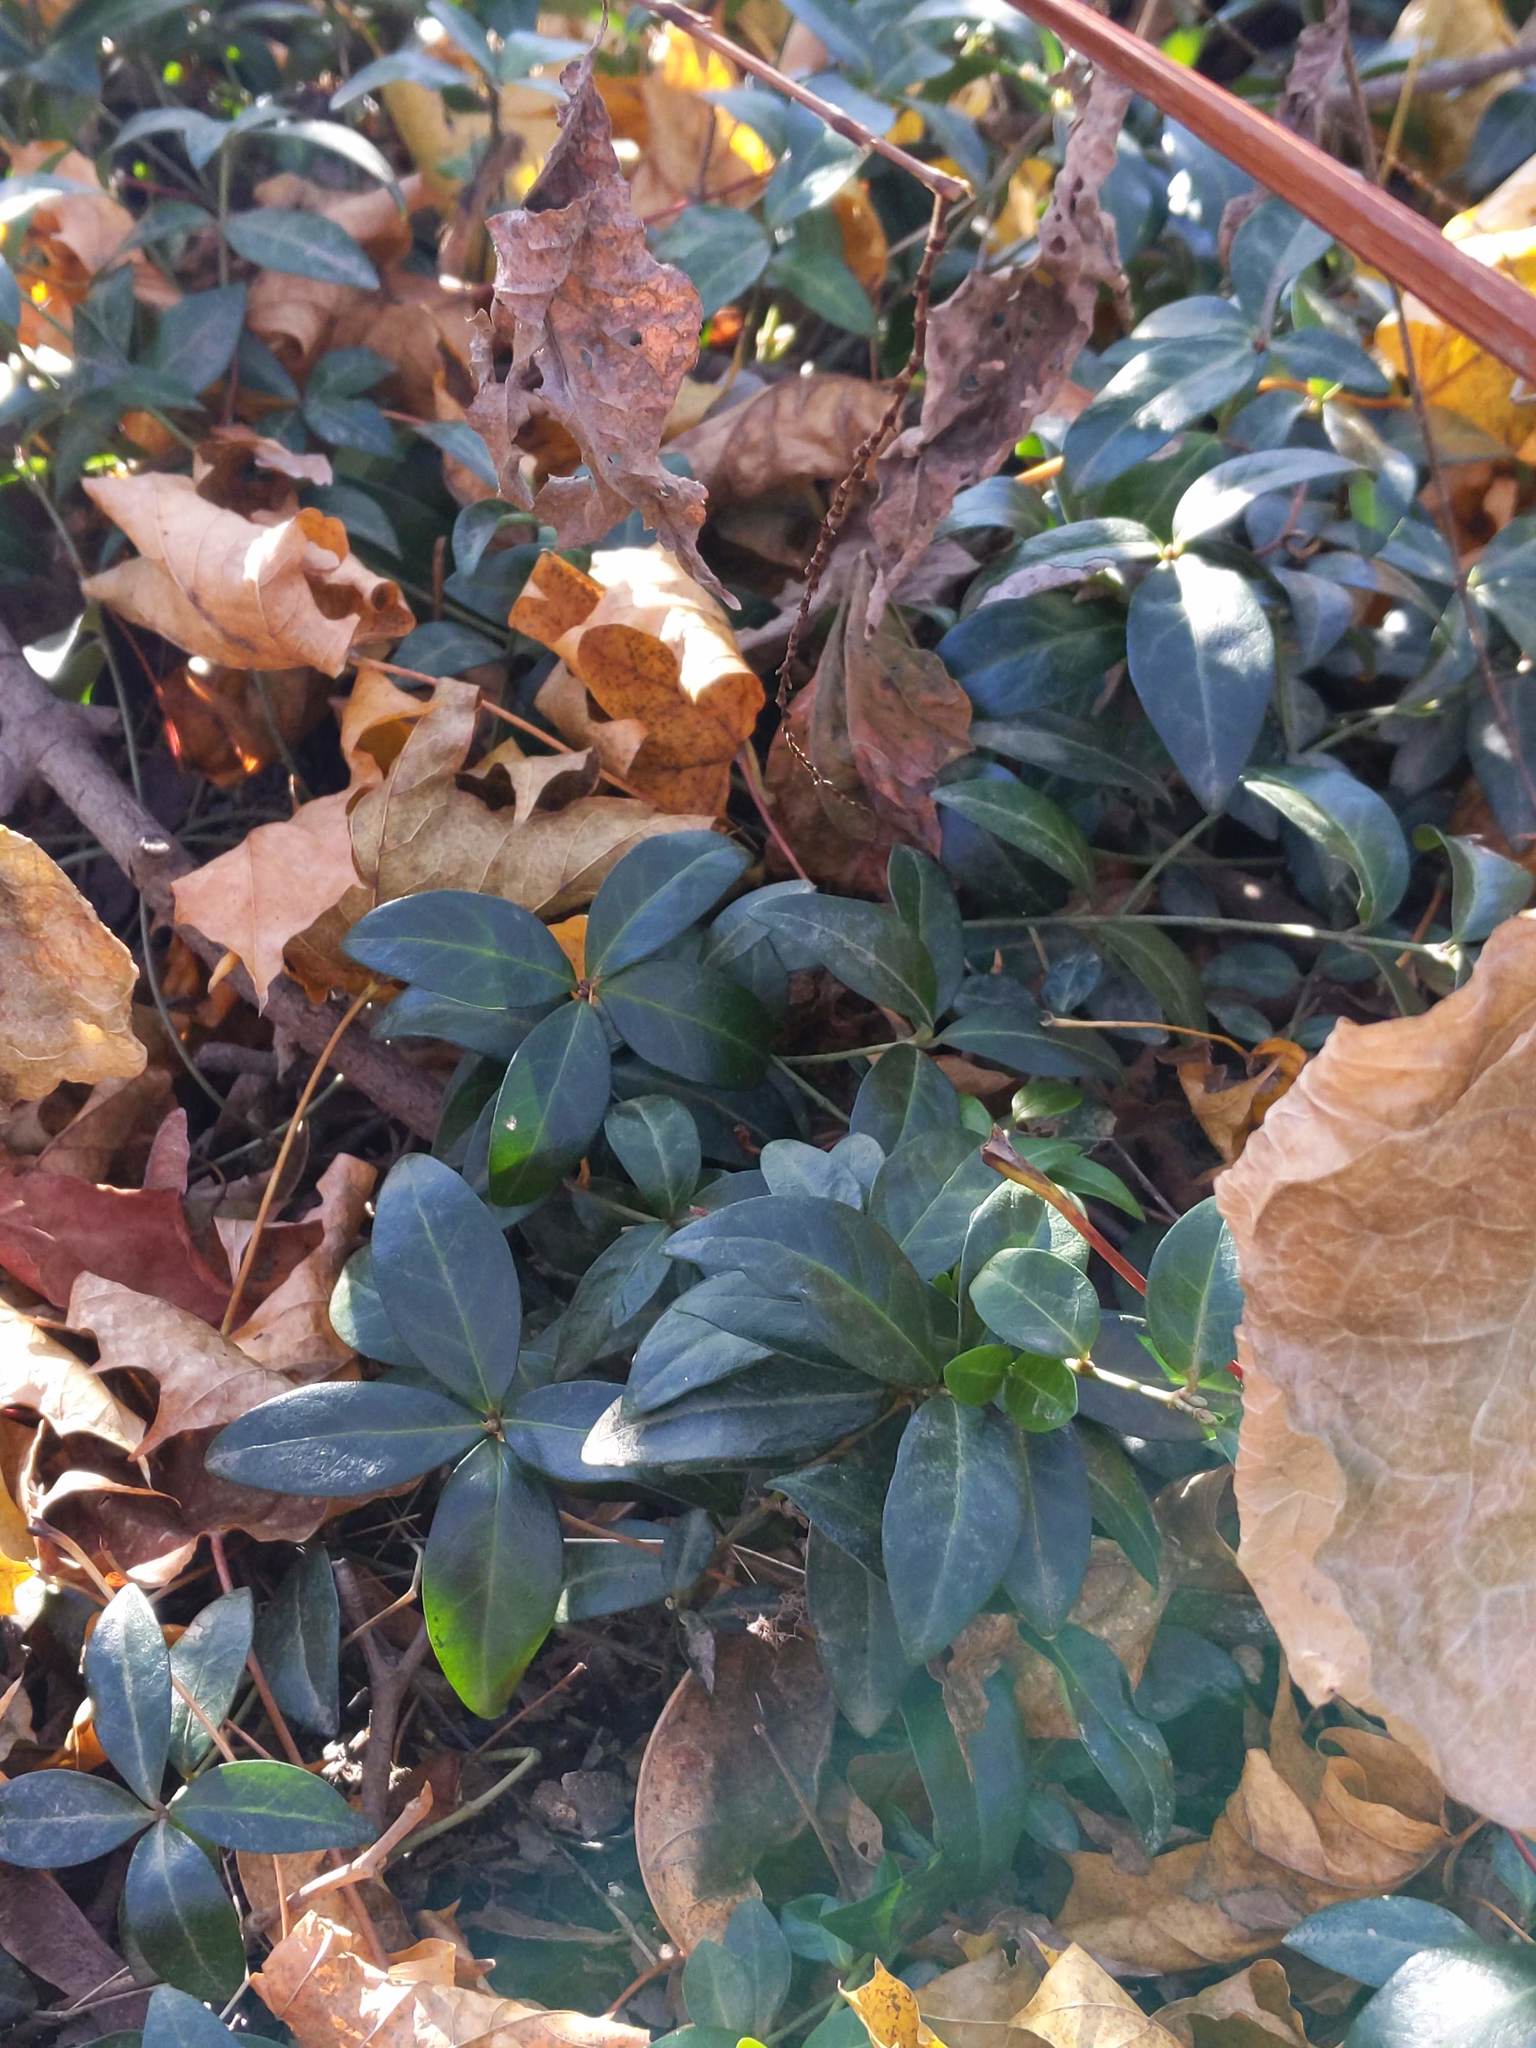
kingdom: Plantae
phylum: Tracheophyta
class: Magnoliopsida
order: Celastrales
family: Celastraceae
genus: Euonymus
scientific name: Euonymus fortunei
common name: Climbing euonymus
